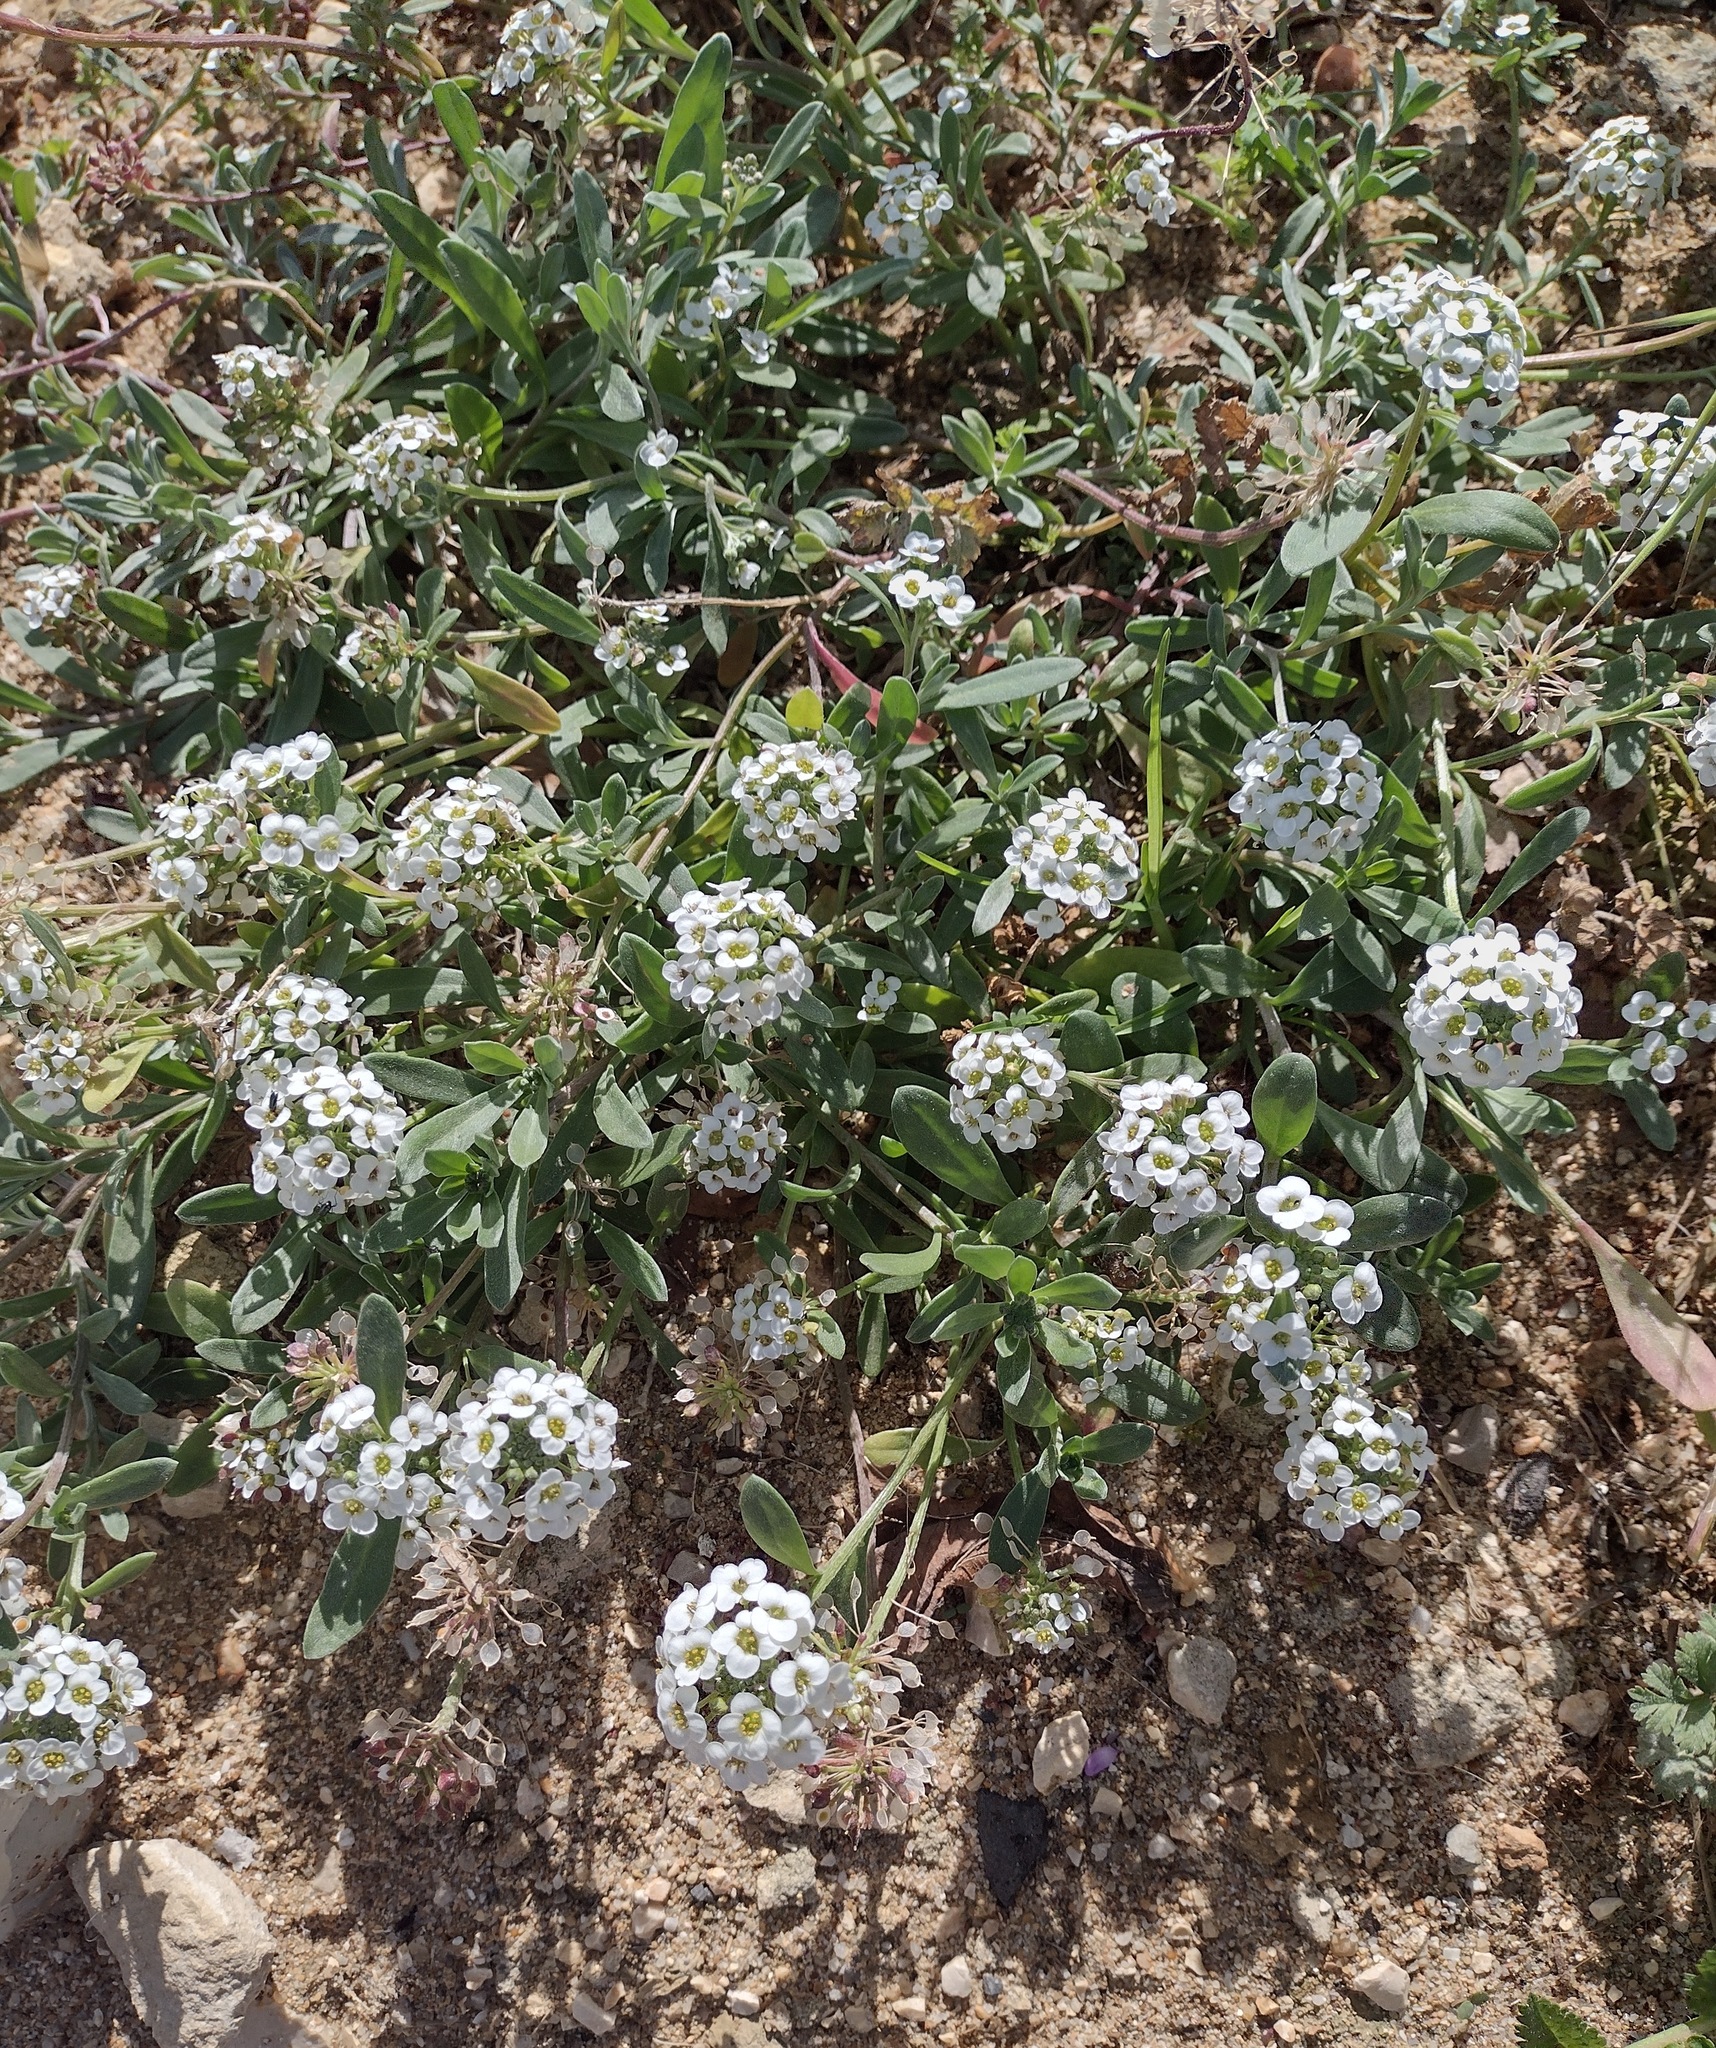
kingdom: Plantae
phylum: Tracheophyta
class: Magnoliopsida
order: Brassicales
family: Brassicaceae
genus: Lobularia
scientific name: Lobularia maritima
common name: Sweet alison
